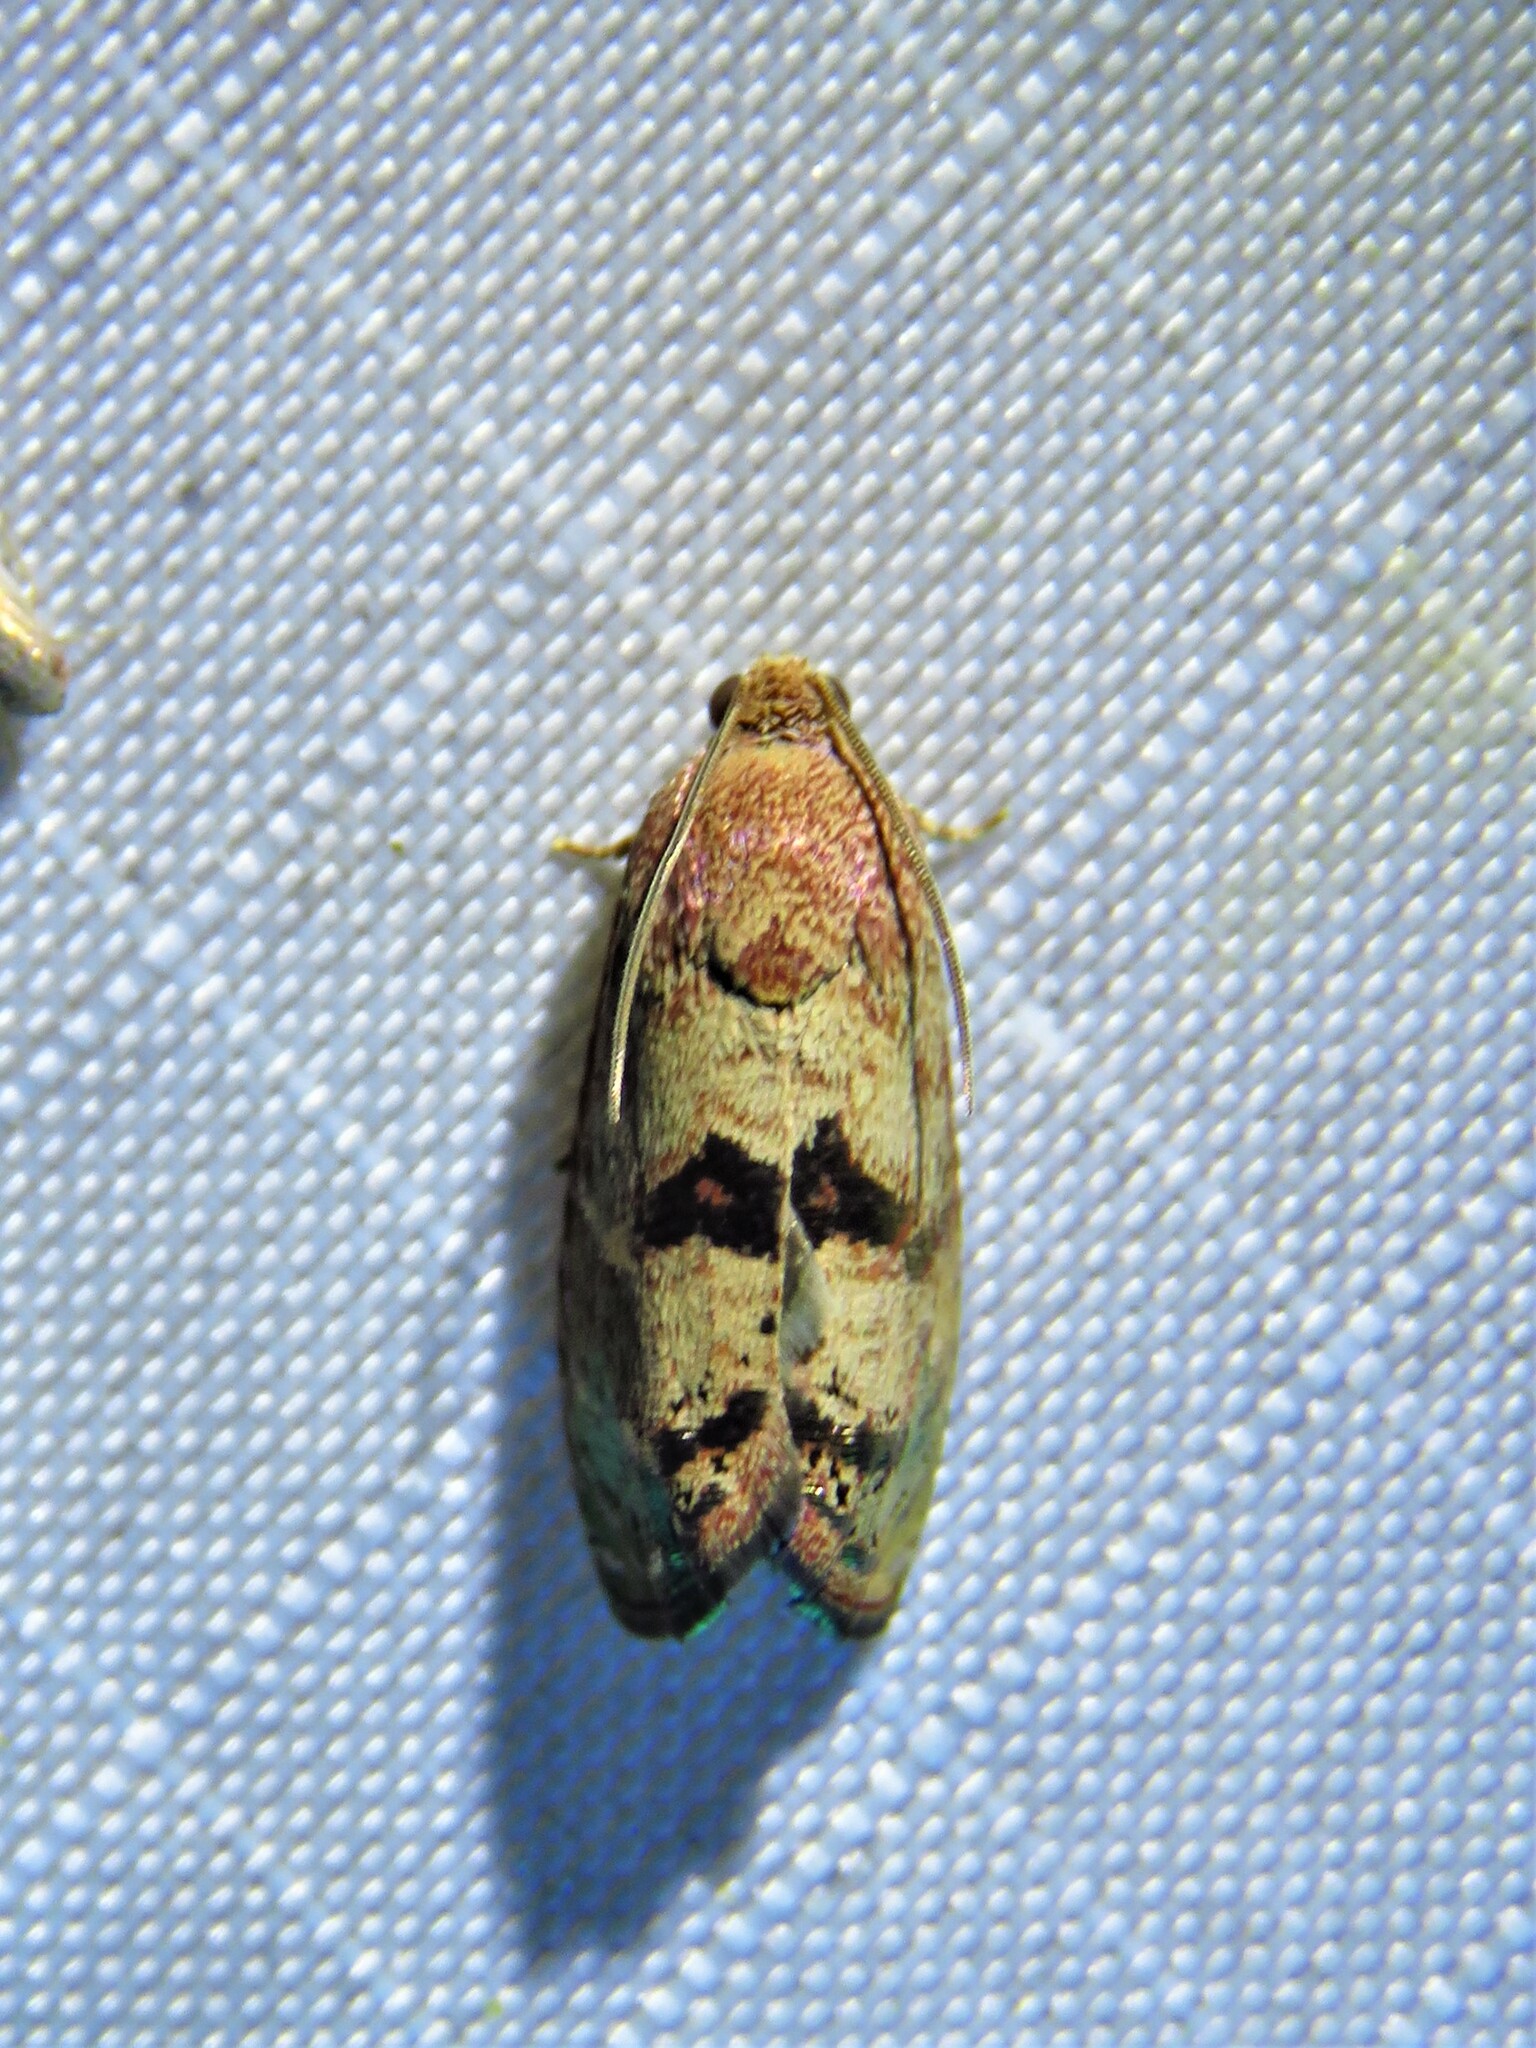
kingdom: Animalia
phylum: Arthropoda
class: Insecta
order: Lepidoptera
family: Tortricidae
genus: Cydia
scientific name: Cydia latiferreana
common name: Filbertworm moth
